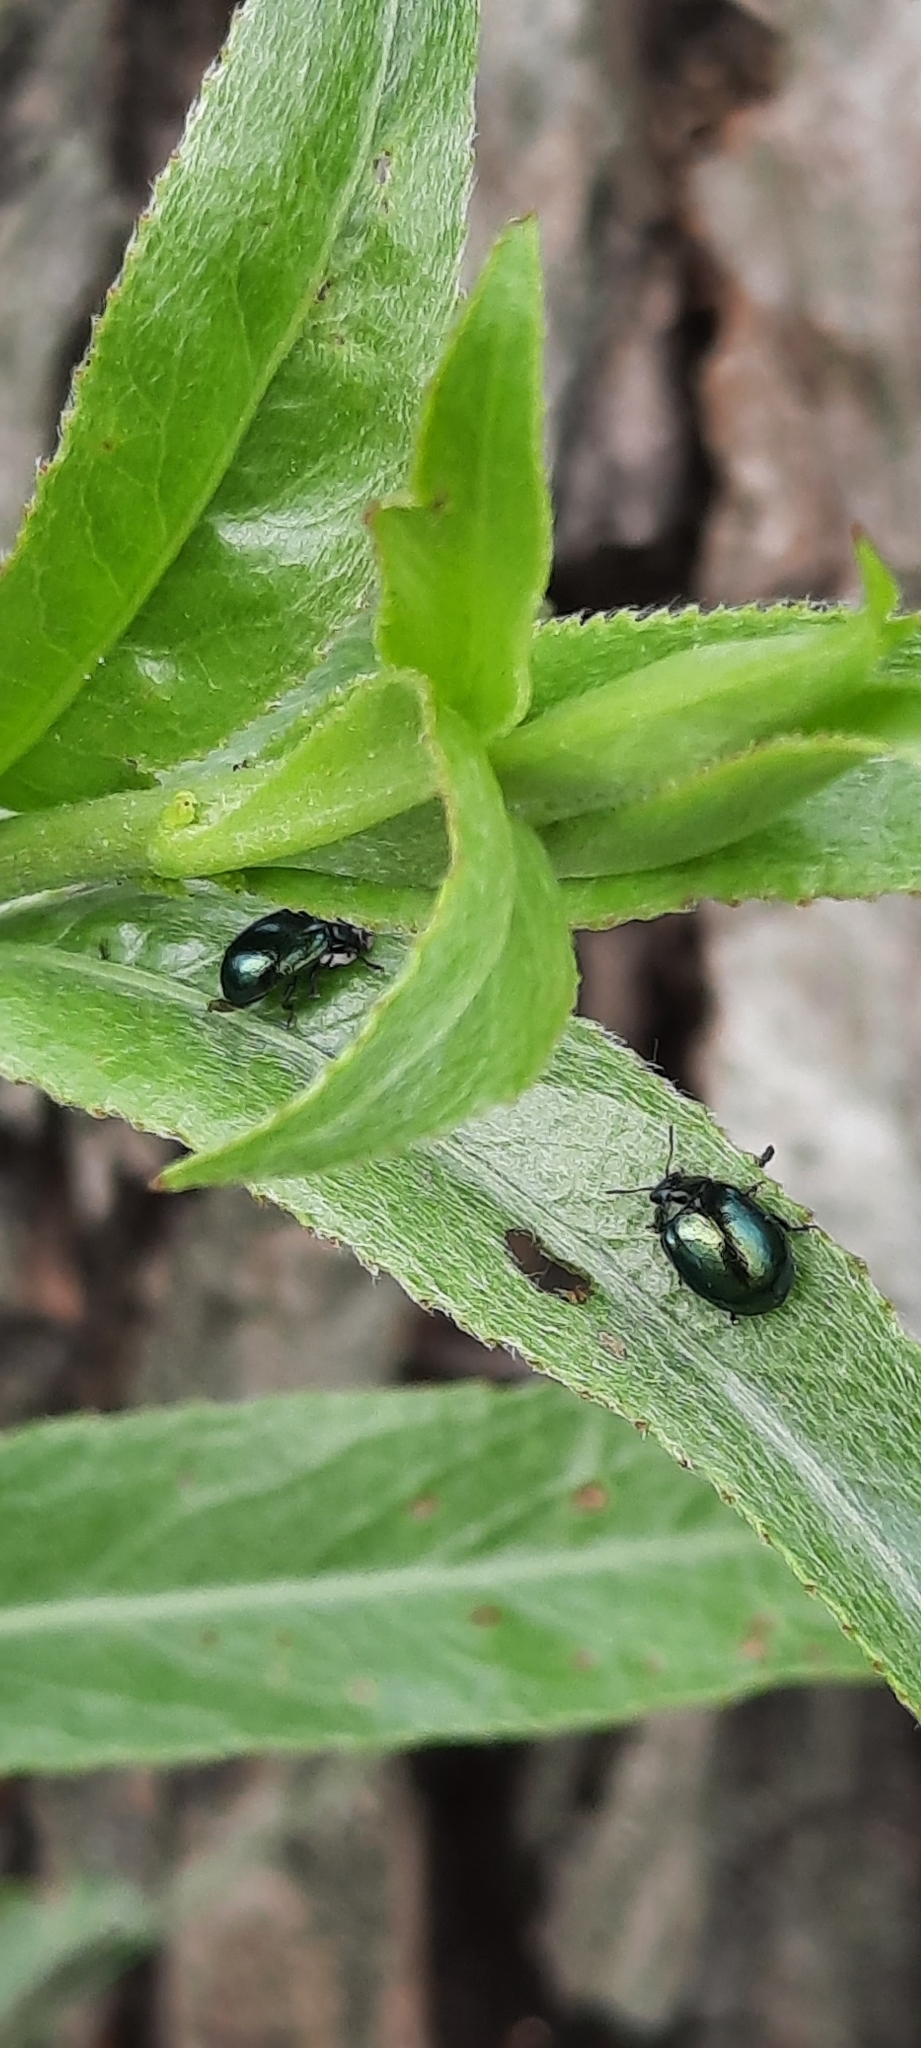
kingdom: Animalia
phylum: Arthropoda
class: Insecta
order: Coleoptera
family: Chrysomelidae
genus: Plagiodera
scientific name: Plagiodera versicolora
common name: Imported willow leaf beetle
